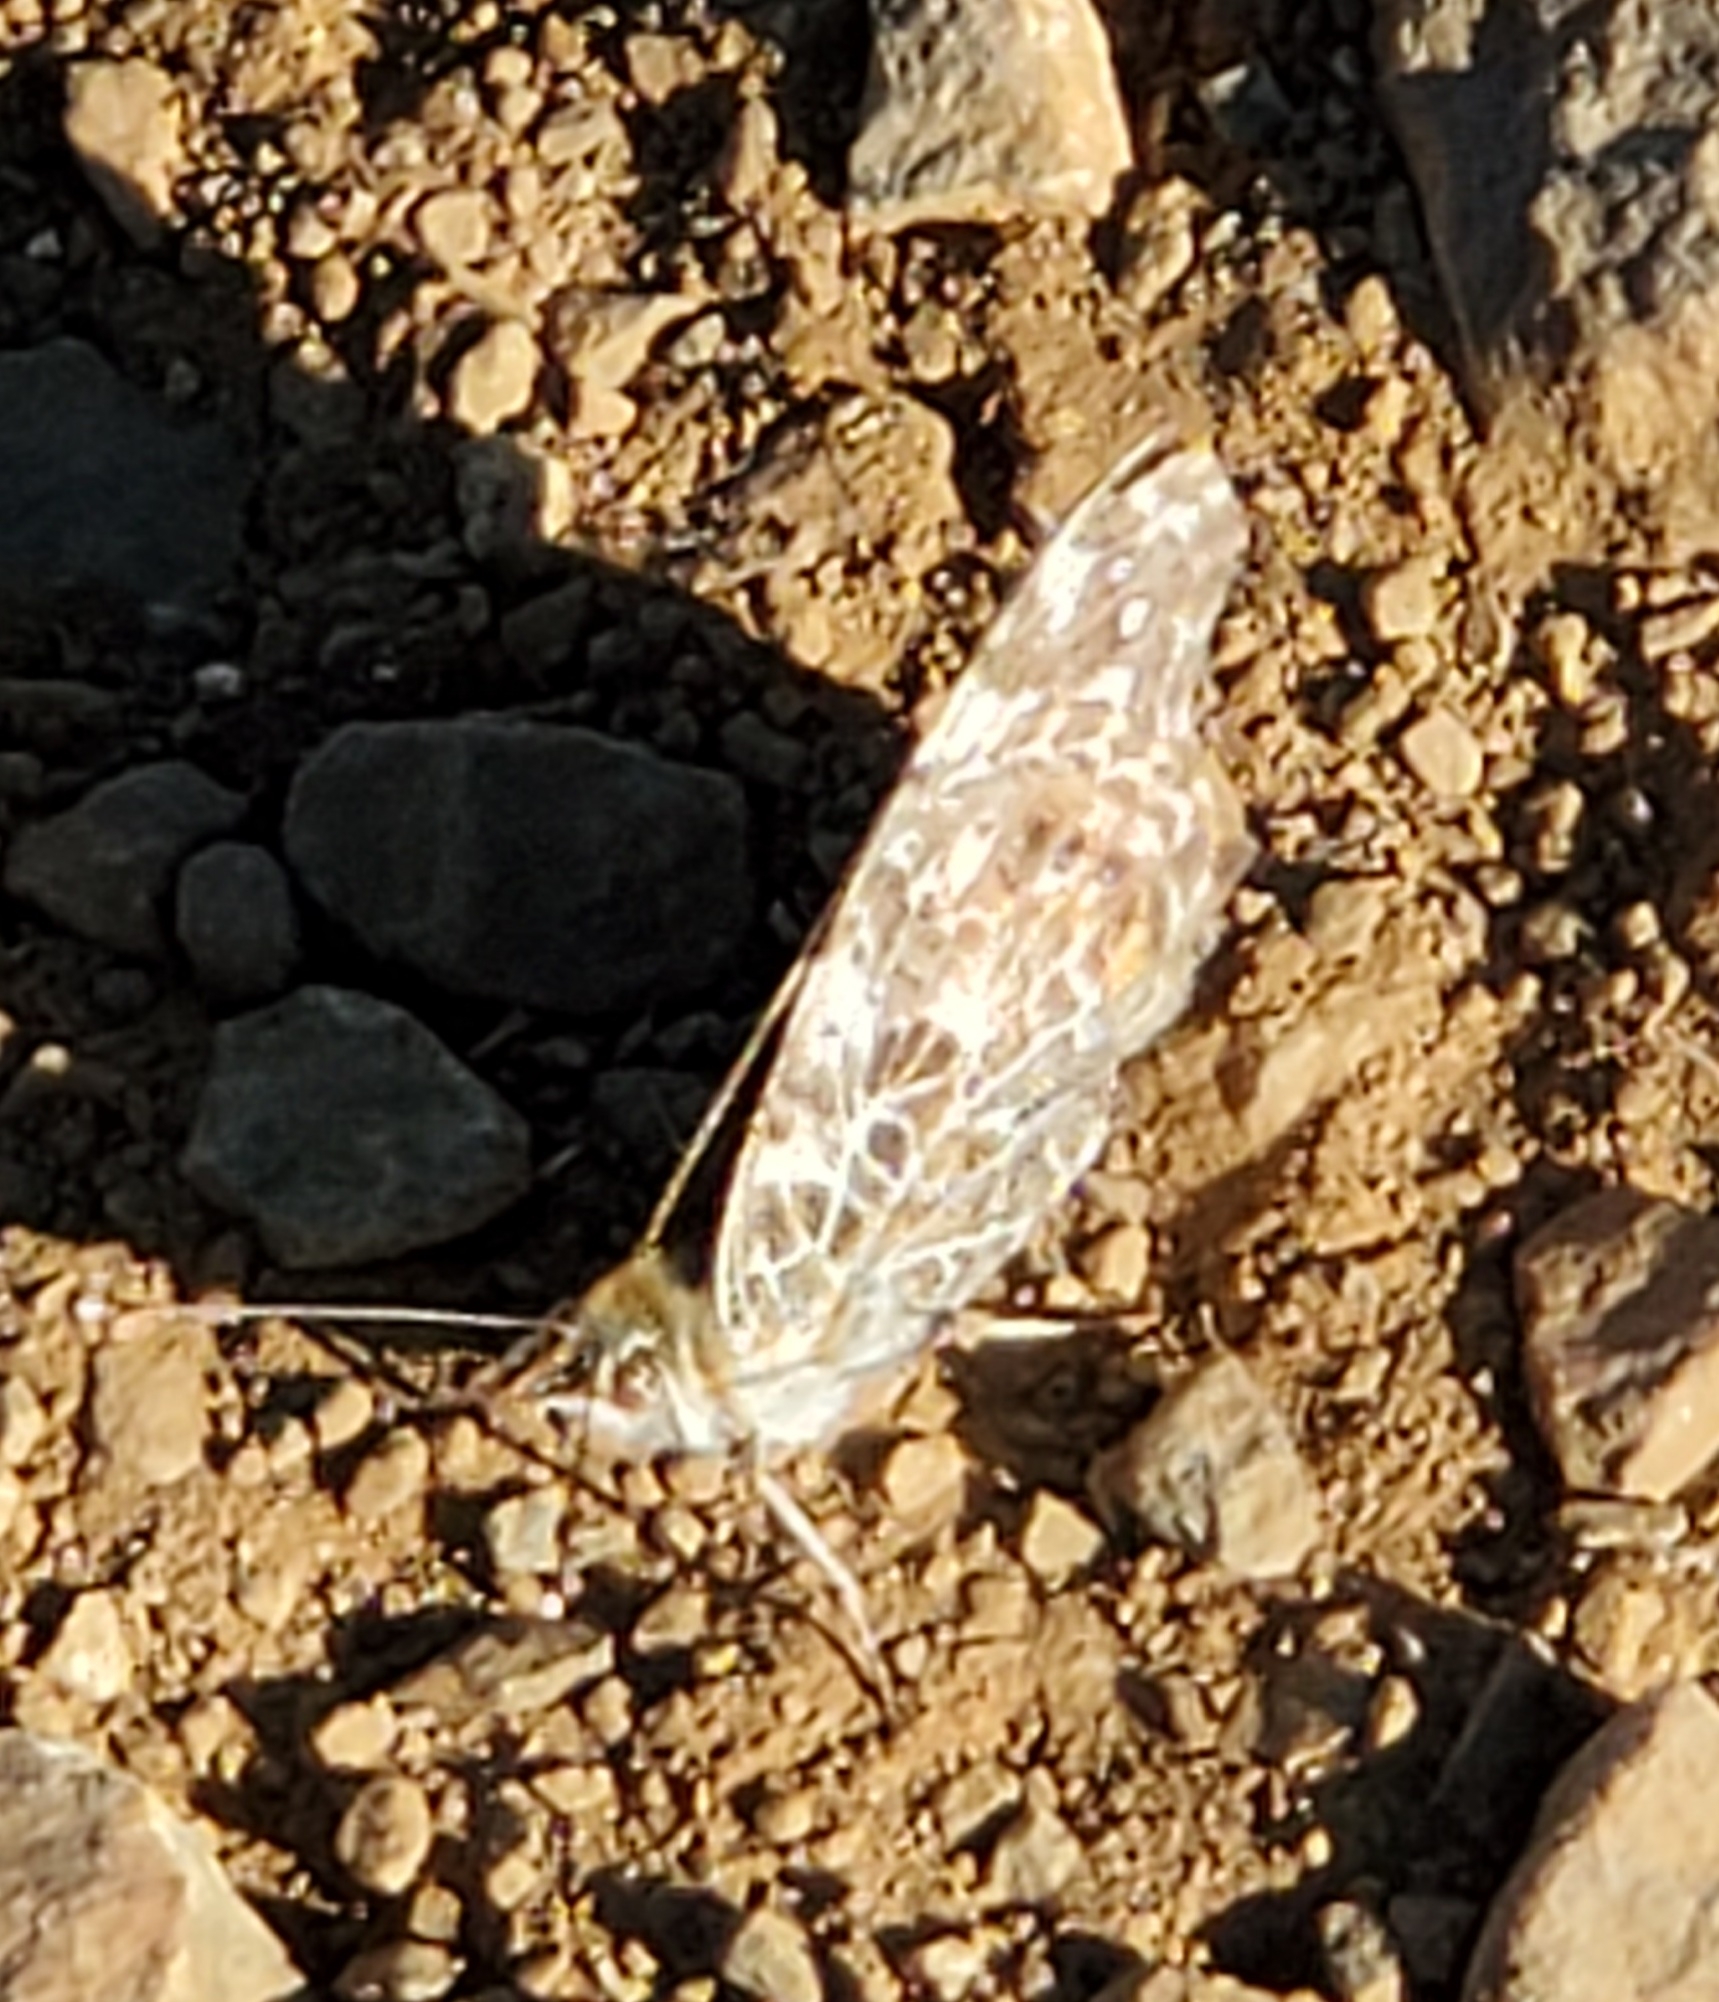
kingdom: Animalia
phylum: Arthropoda
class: Insecta
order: Lepidoptera
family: Nymphalidae
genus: Vanessa
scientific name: Vanessa cardui
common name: Painted lady
